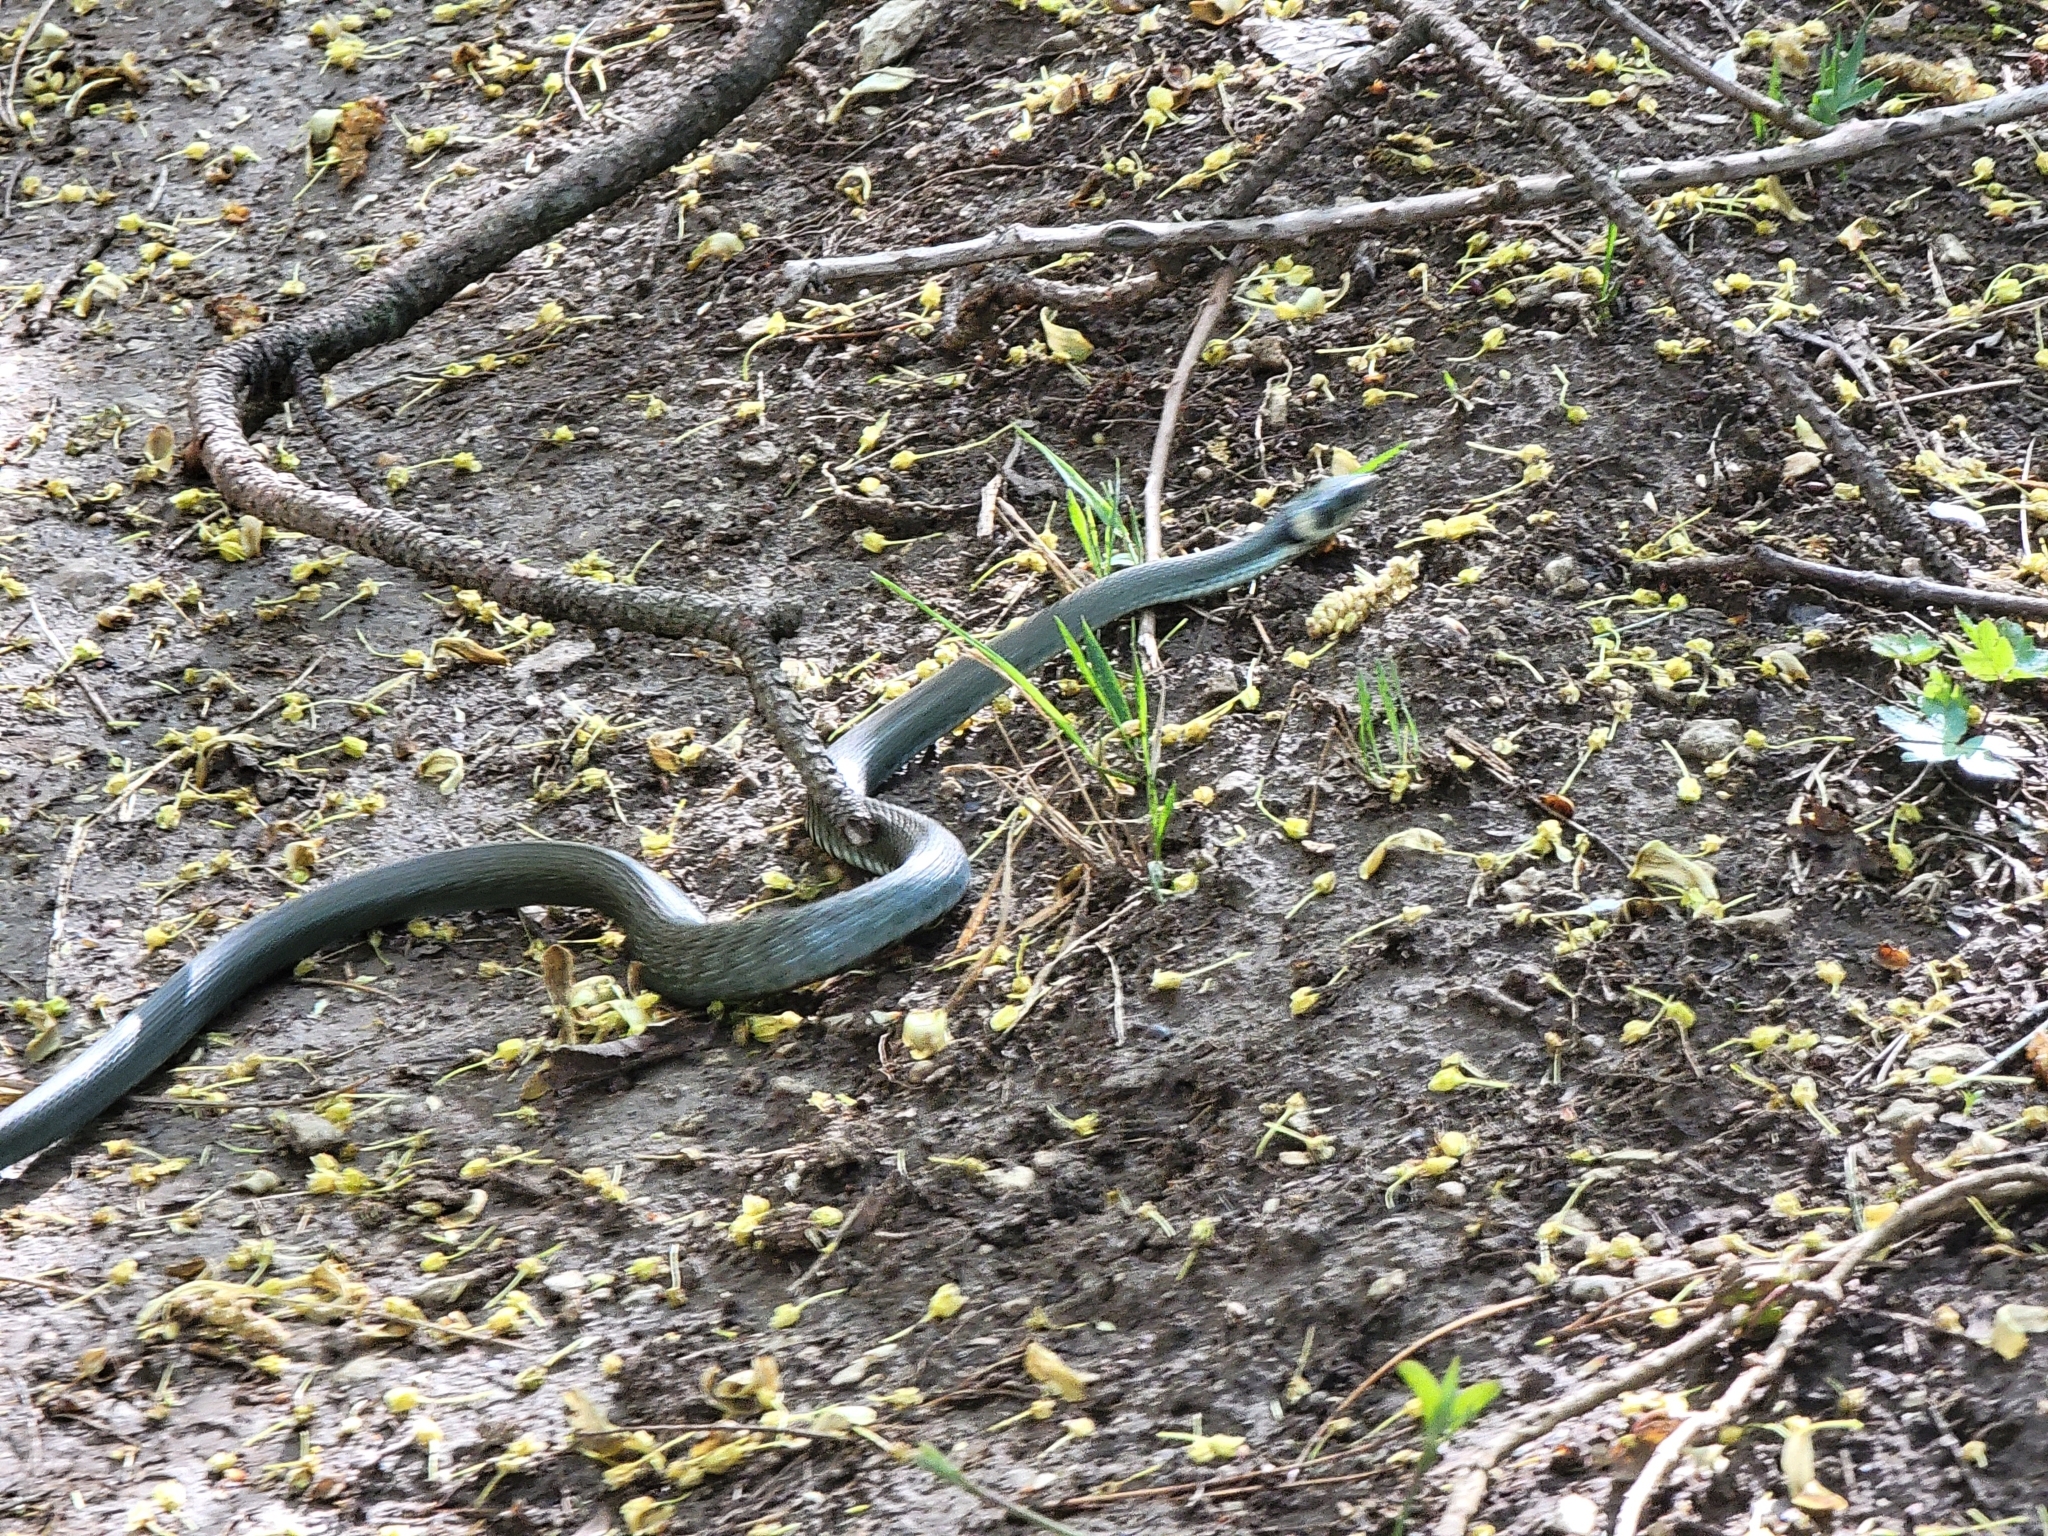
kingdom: Animalia
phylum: Chordata
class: Squamata
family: Colubridae
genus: Natrix
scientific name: Natrix natrix
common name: Grass snake
